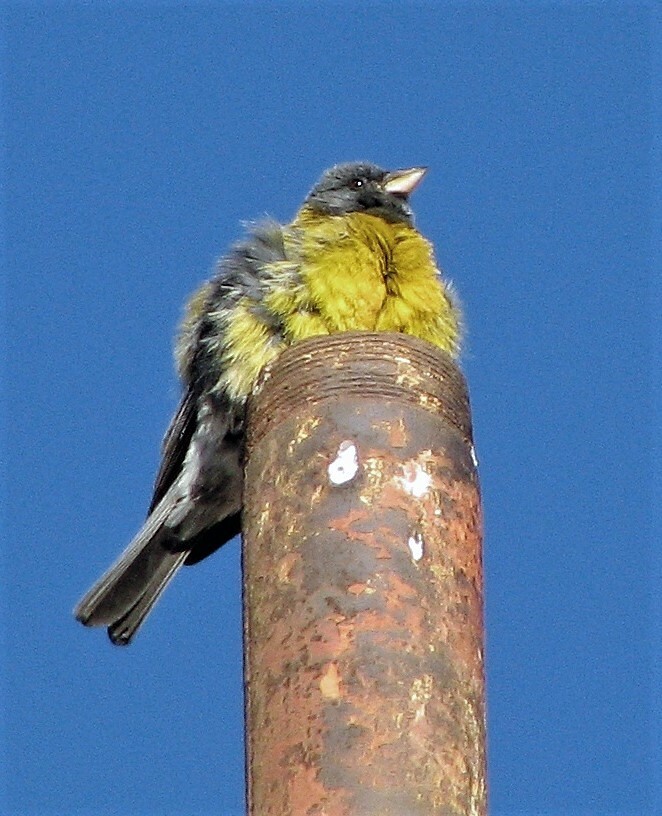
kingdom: Animalia
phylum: Chordata
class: Aves
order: Passeriformes
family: Thraupidae
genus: Phrygilus
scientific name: Phrygilus gayi
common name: Grey-hooded sierra finch
